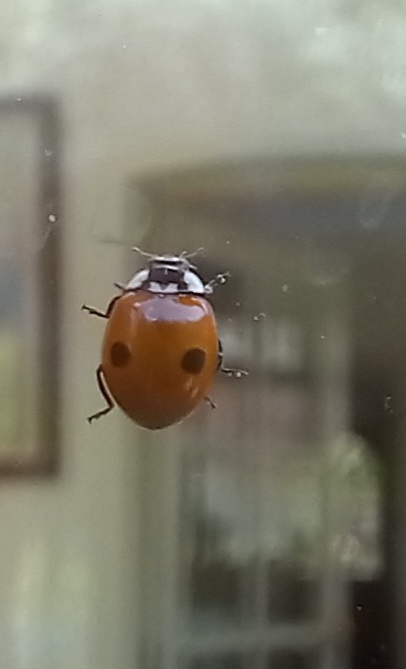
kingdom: Animalia
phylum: Arthropoda
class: Insecta
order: Coleoptera
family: Coccinellidae
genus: Adalia
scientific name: Adalia bipunctata
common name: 2-spot ladybird
